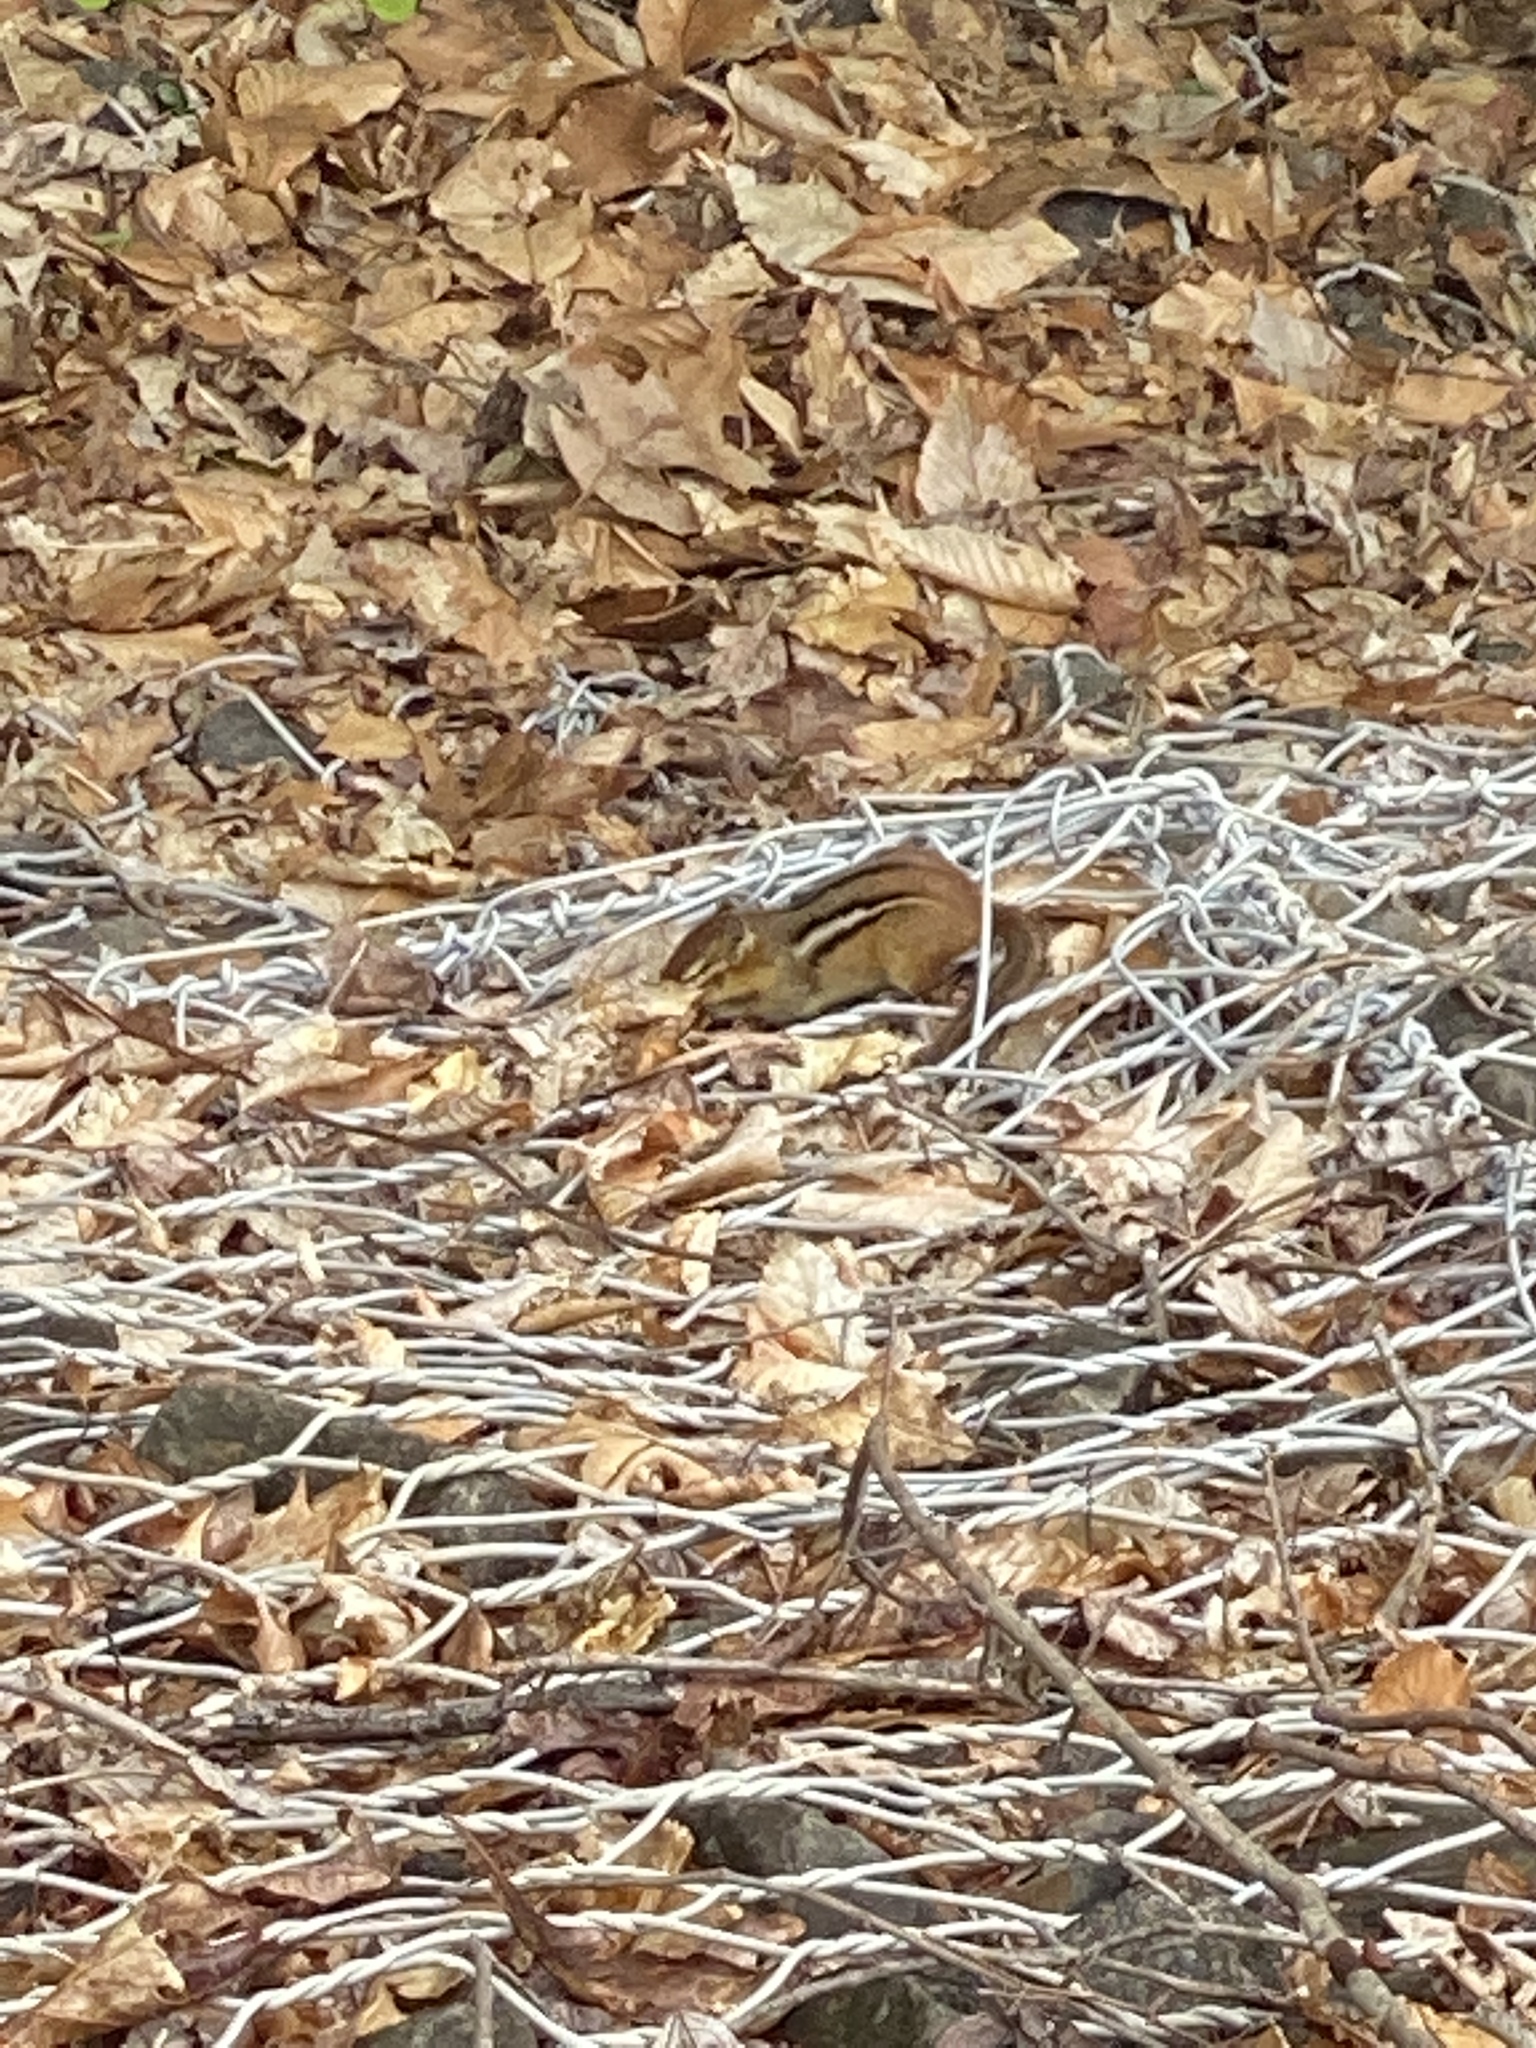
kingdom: Animalia
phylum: Chordata
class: Mammalia
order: Rodentia
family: Sciuridae
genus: Tamias
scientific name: Tamias striatus
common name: Eastern chipmunk
